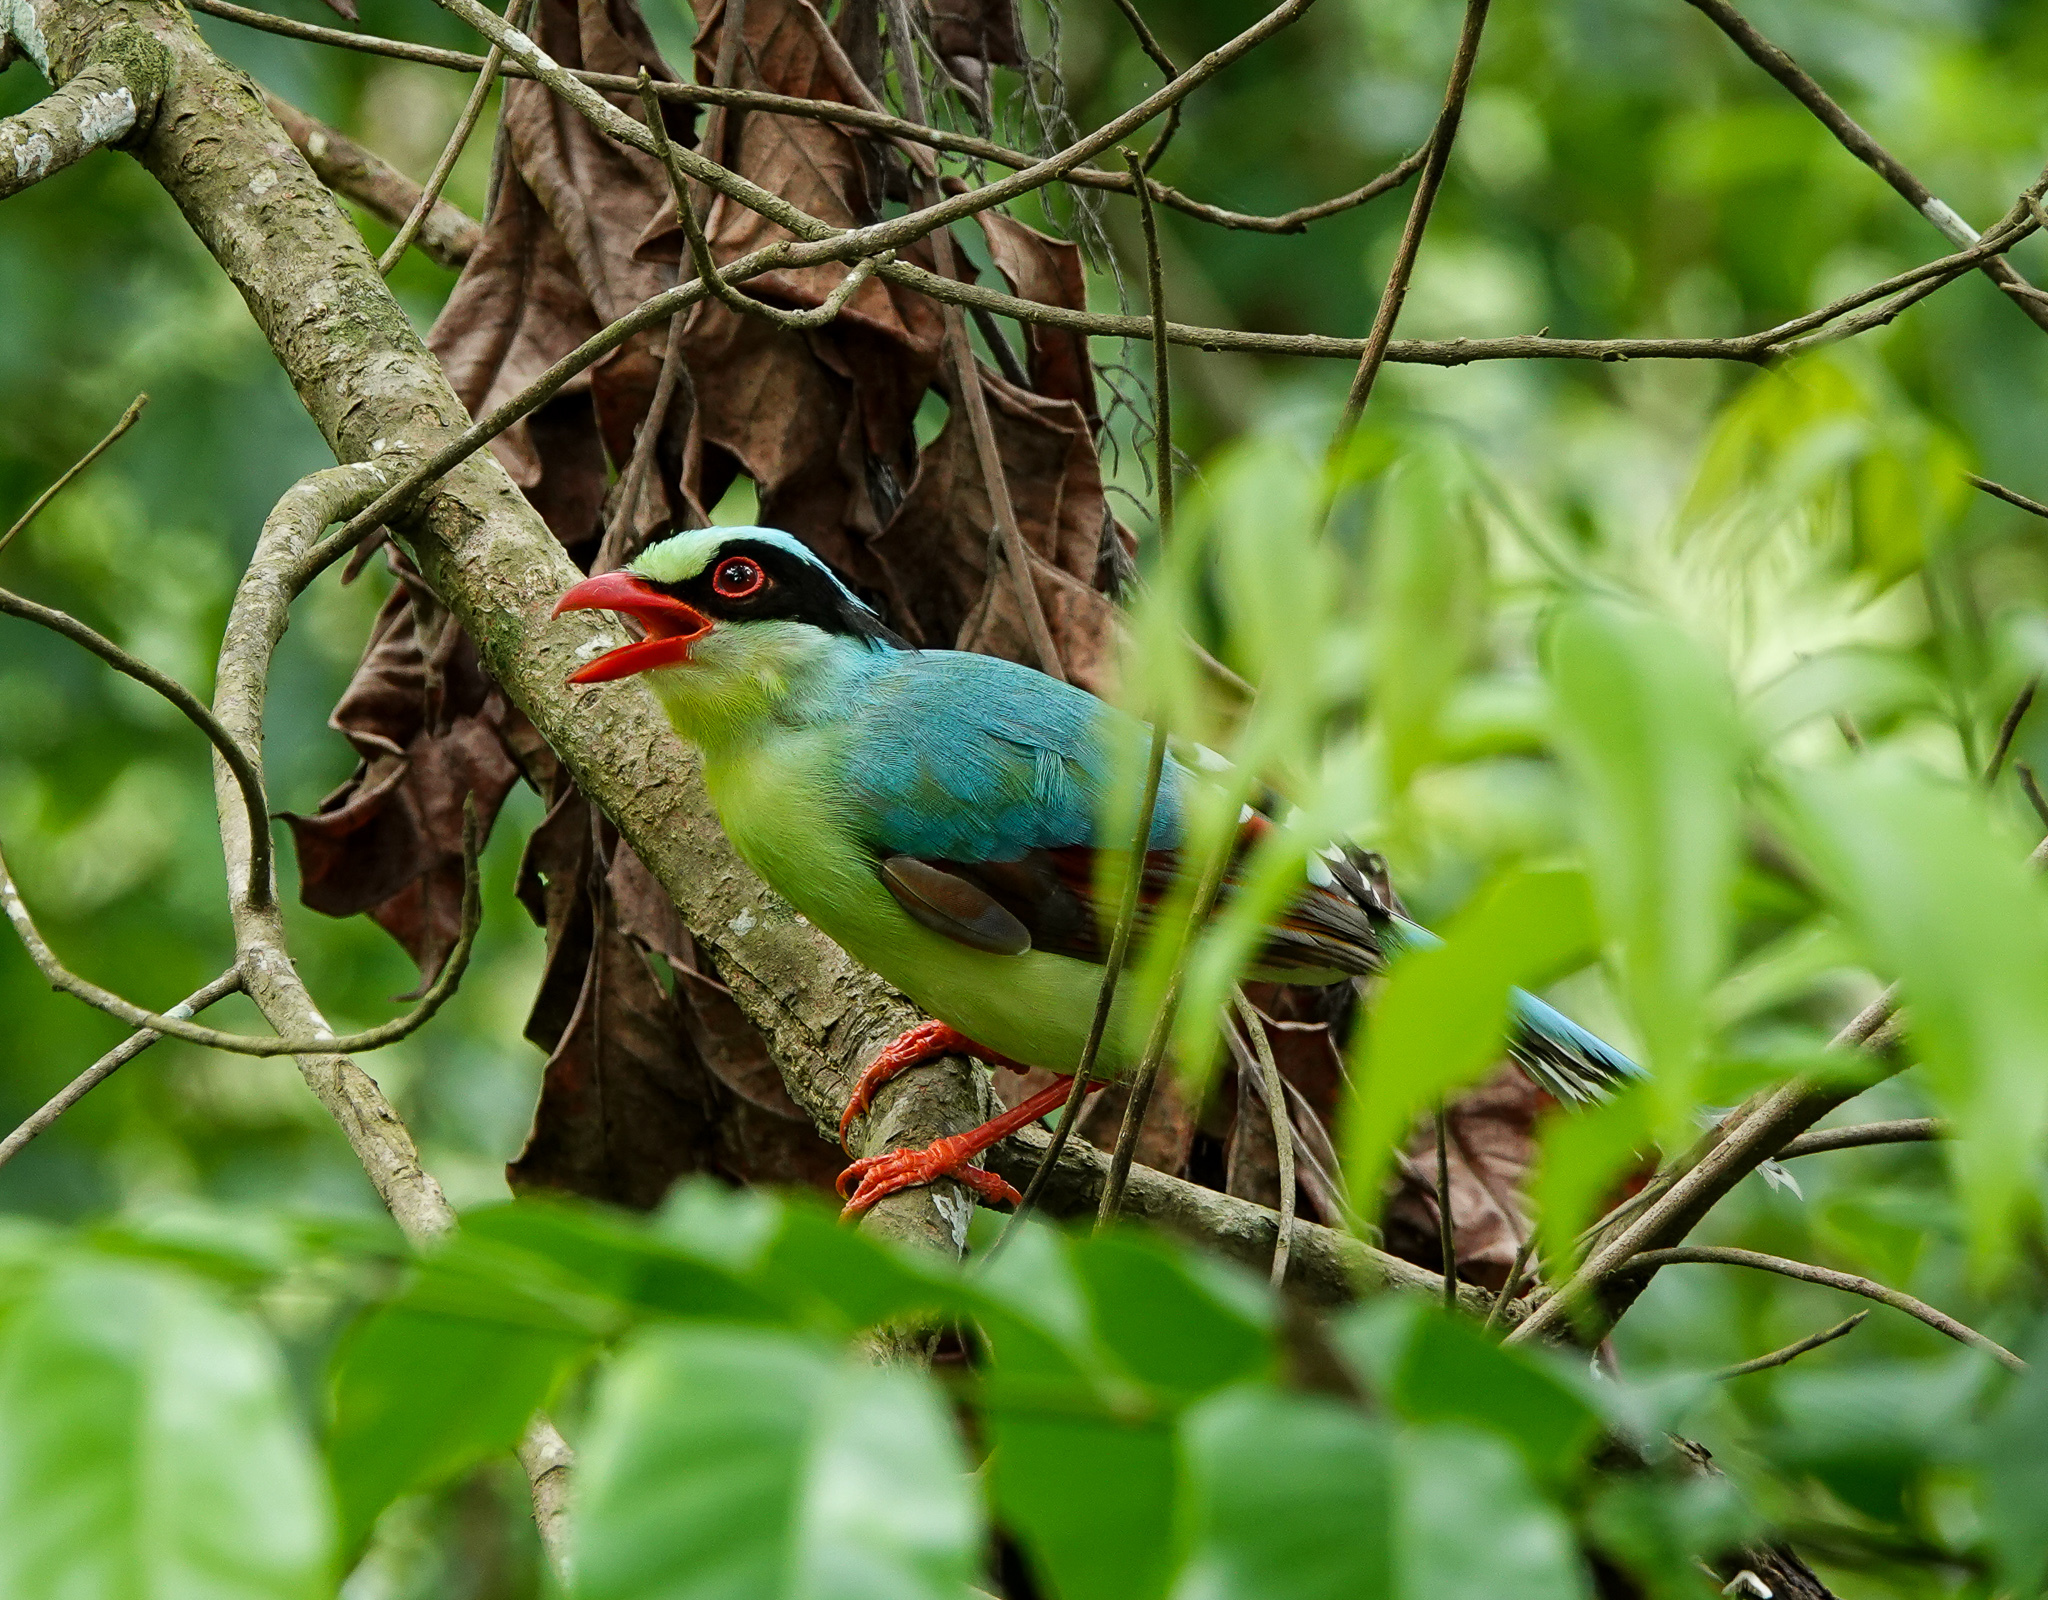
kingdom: Animalia
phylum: Chordata
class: Aves
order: Passeriformes
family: Corvidae
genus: Cissa
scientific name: Cissa chinensis
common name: Common green magpie
